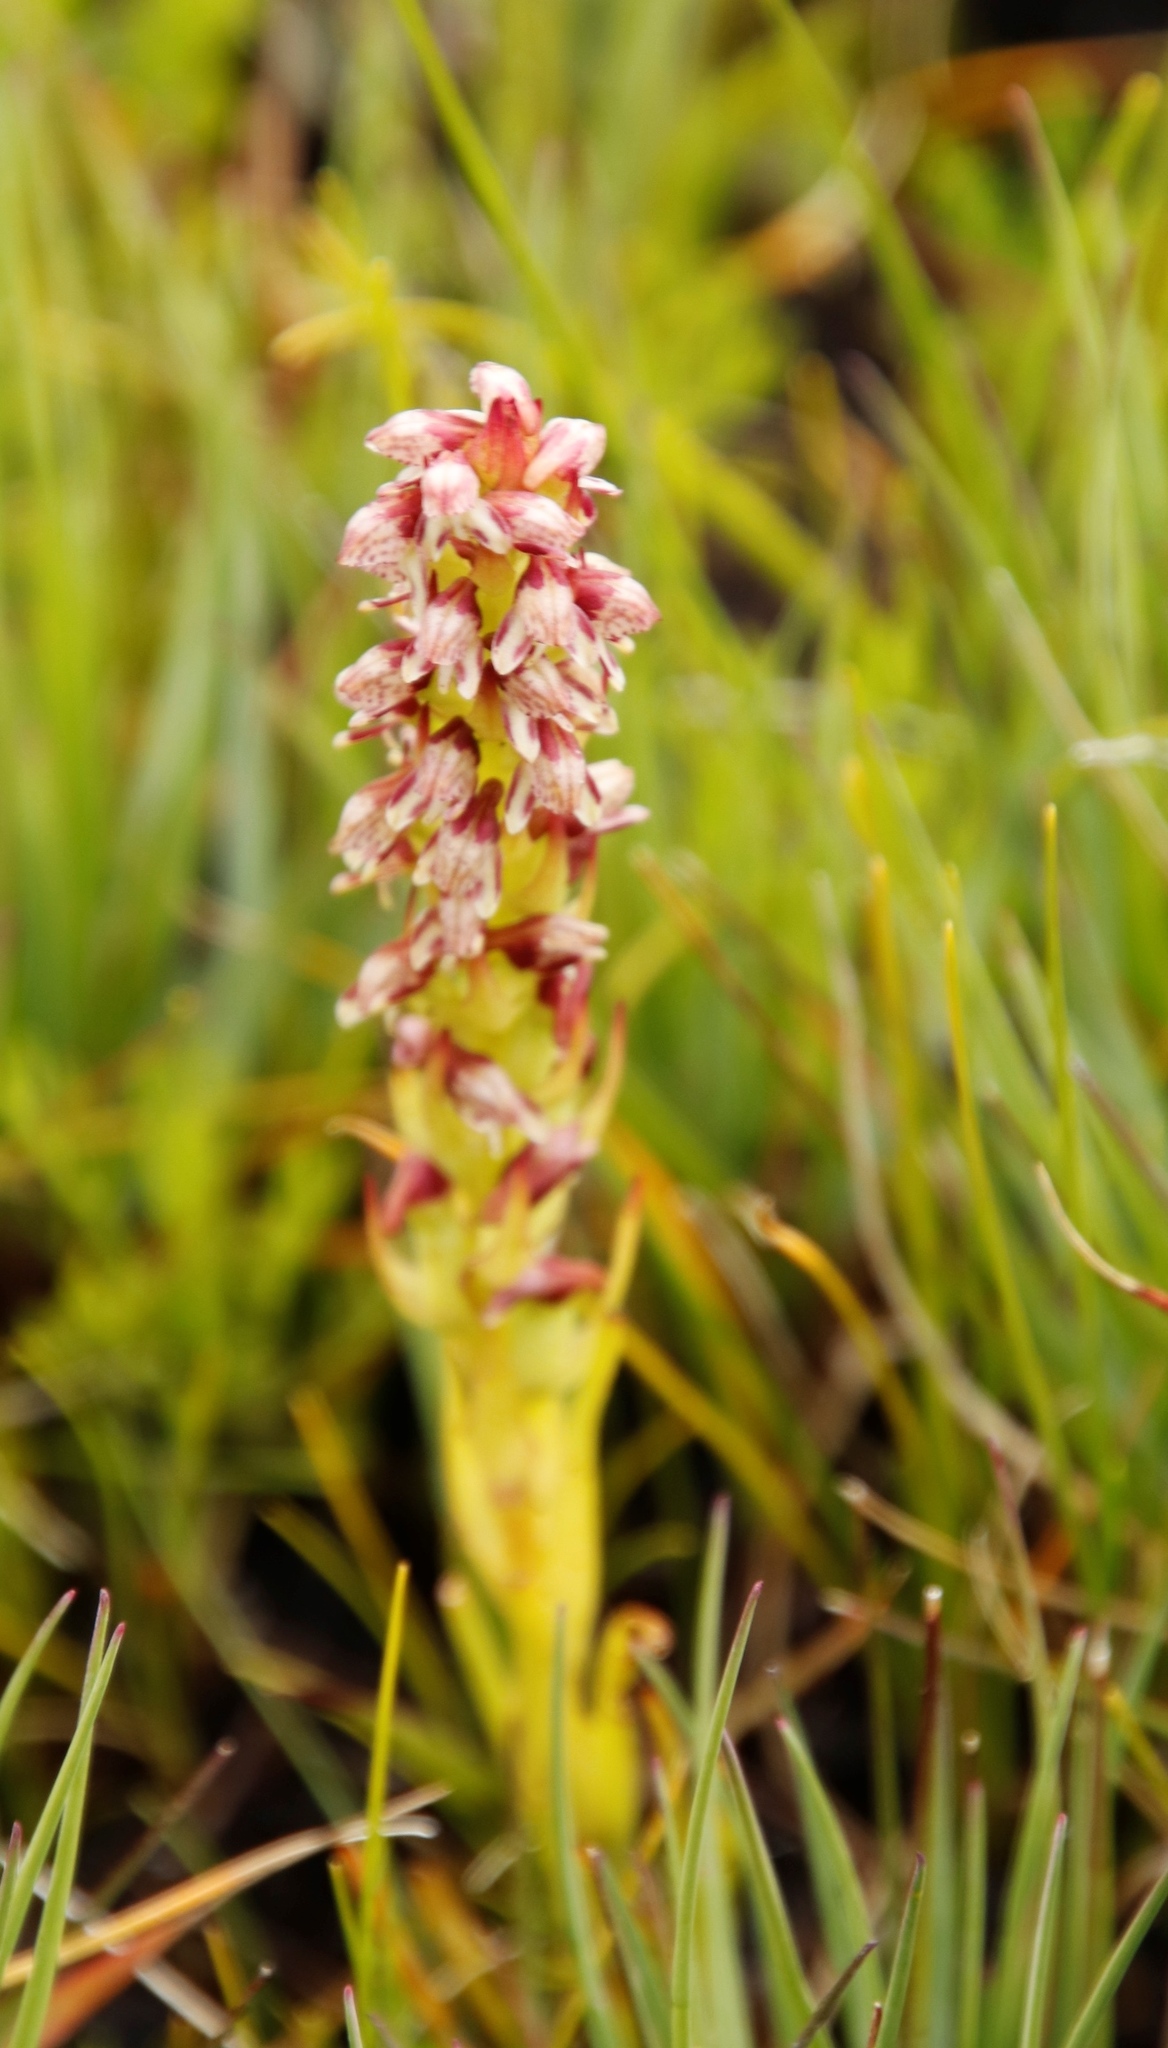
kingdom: Plantae
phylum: Tracheophyta
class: Liliopsida
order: Asparagales
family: Orchidaceae
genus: Disa
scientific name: Disa obtusa
